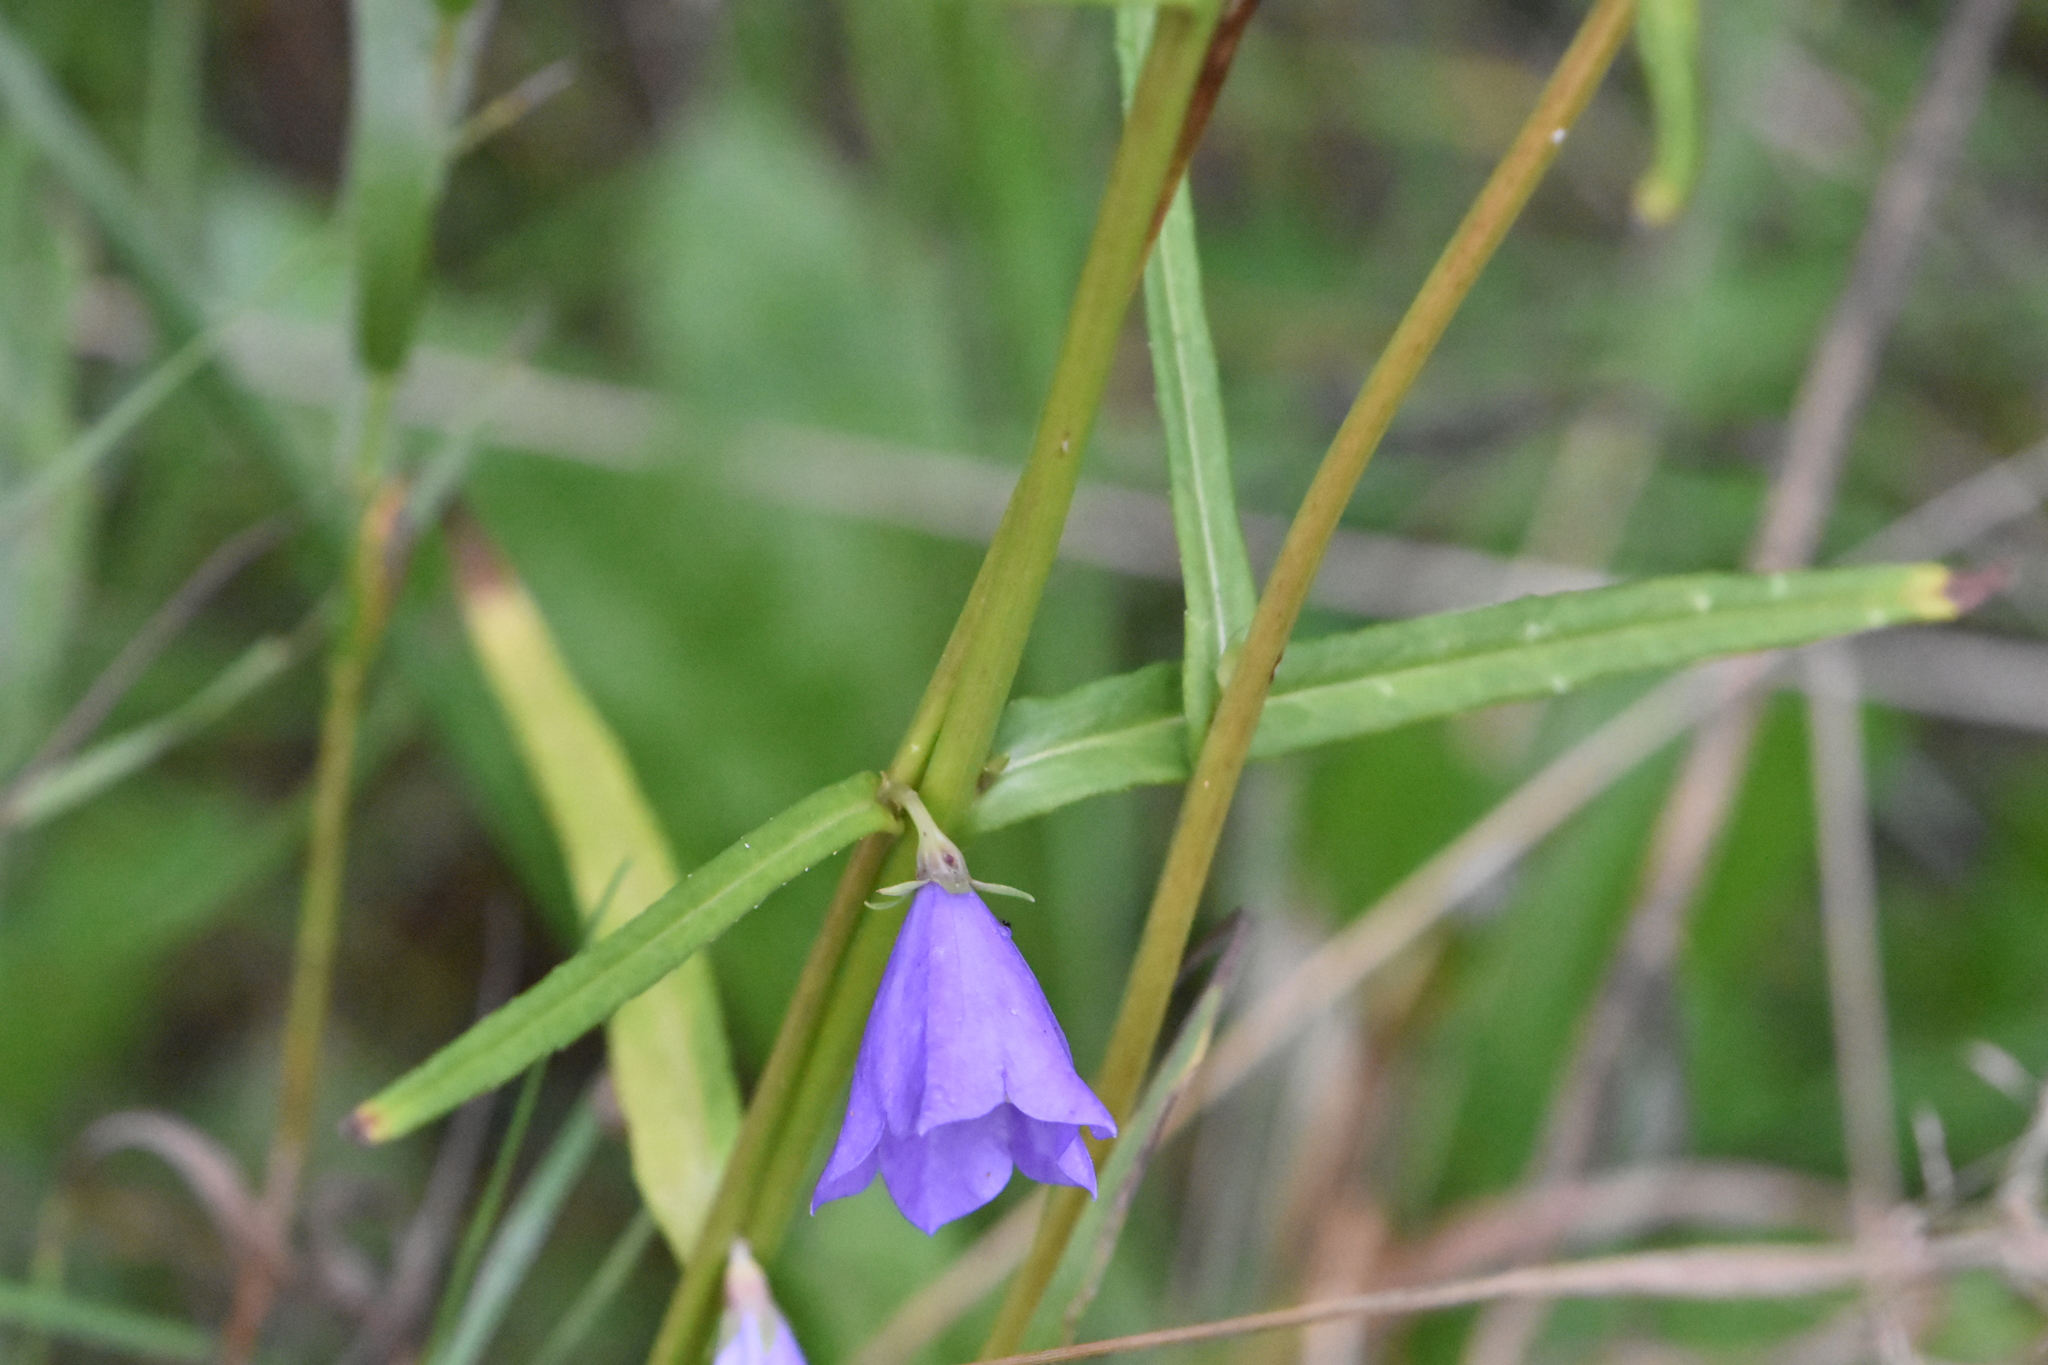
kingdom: Plantae
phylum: Tracheophyta
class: Magnoliopsida
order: Asterales
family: Campanulaceae
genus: Campanula
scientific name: Campanula persicifolia
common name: Peach-leaved bellflower
